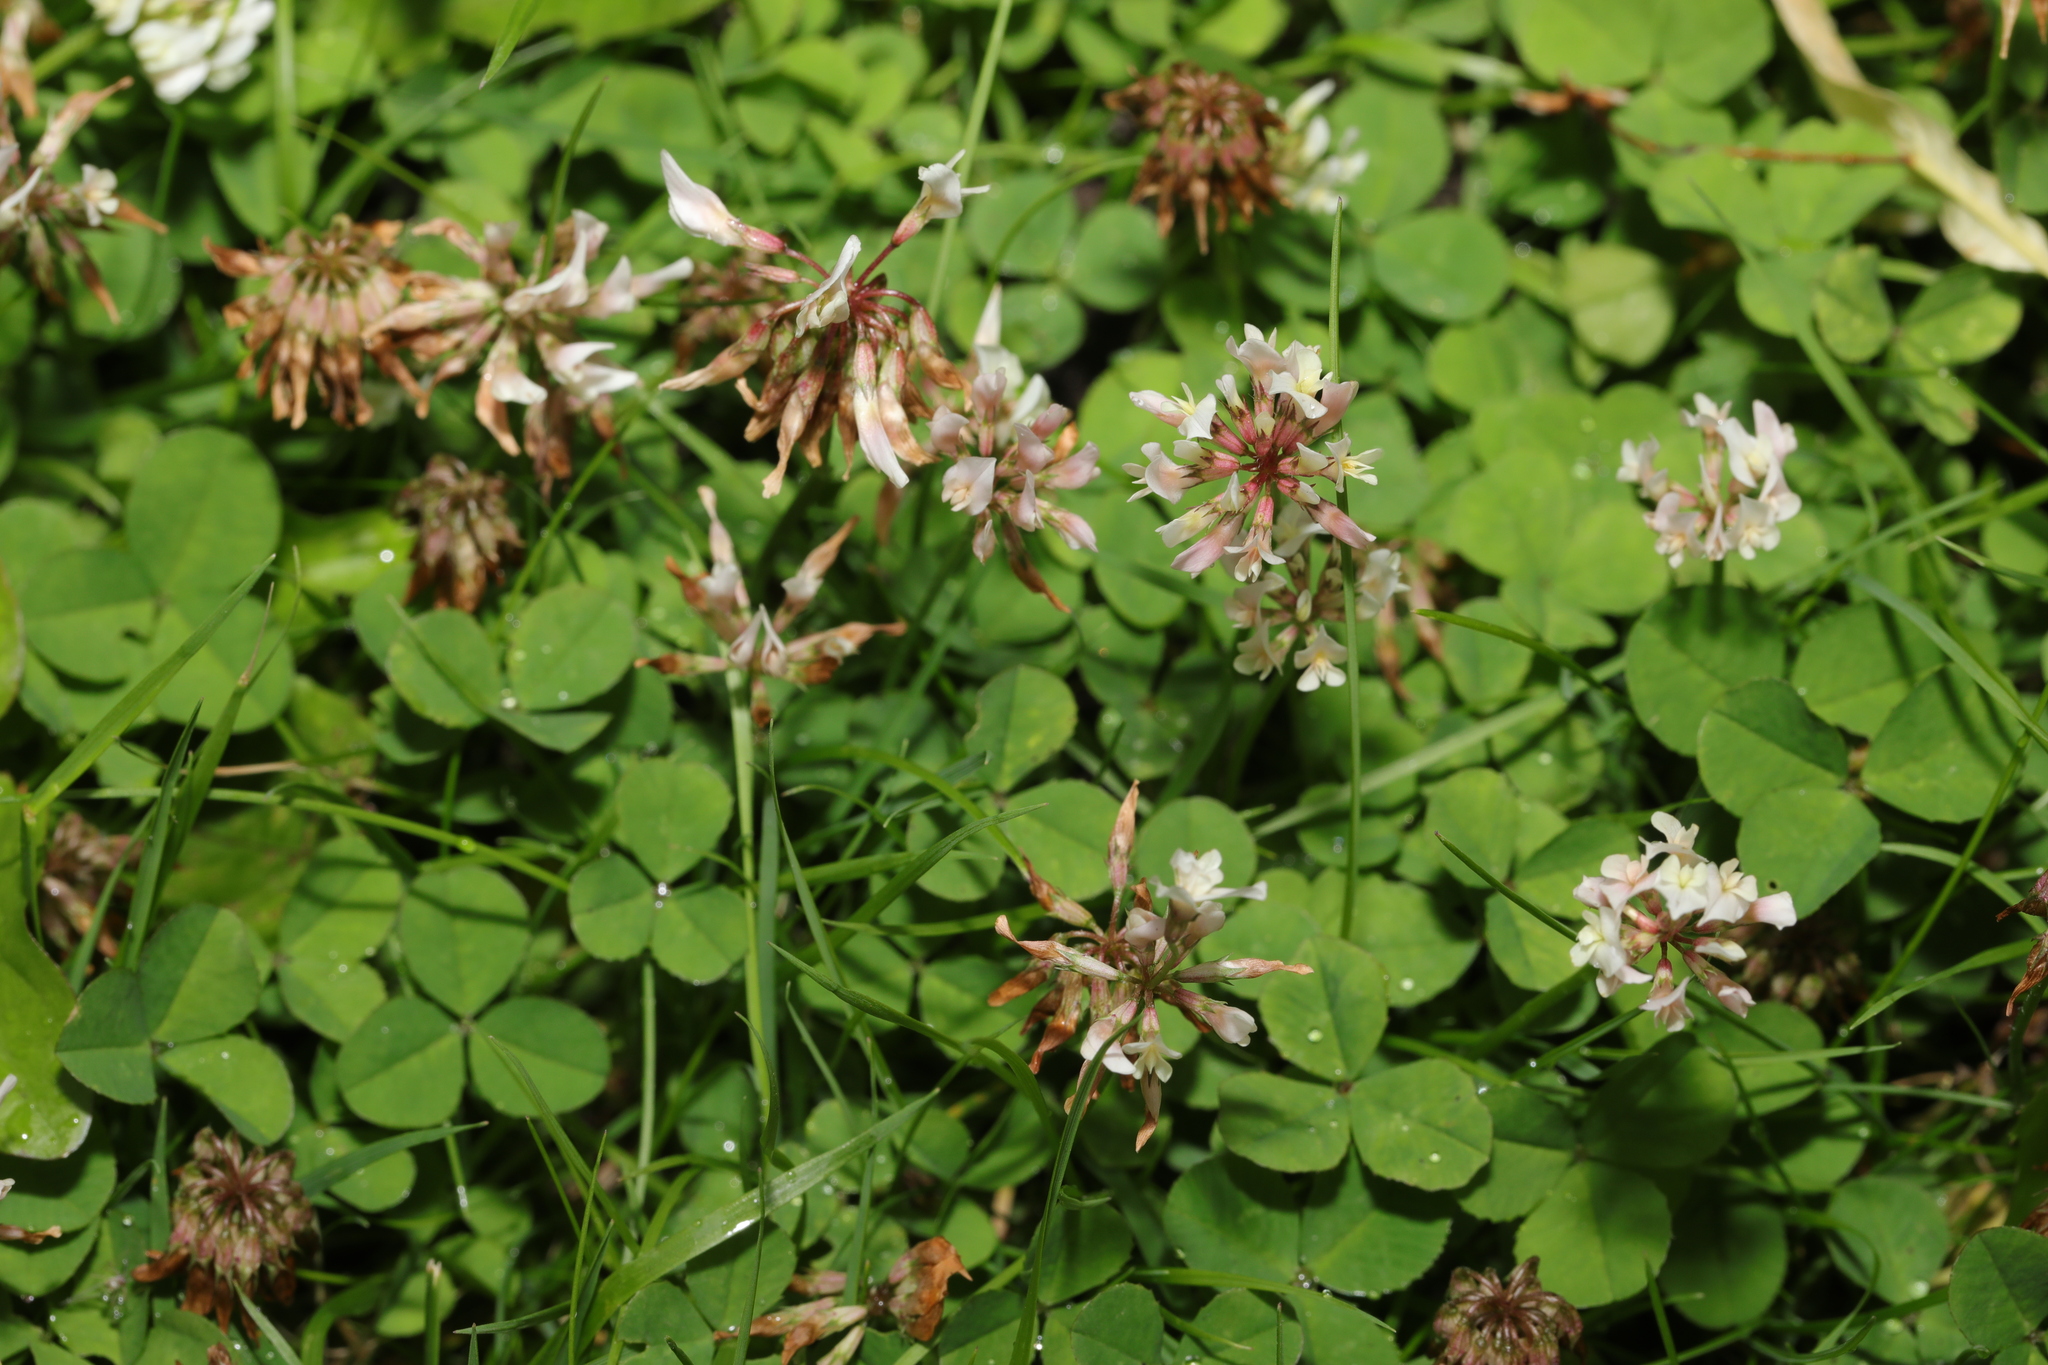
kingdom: Plantae
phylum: Tracheophyta
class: Magnoliopsida
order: Fabales
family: Fabaceae
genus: Trifolium
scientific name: Trifolium repens
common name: White clover
